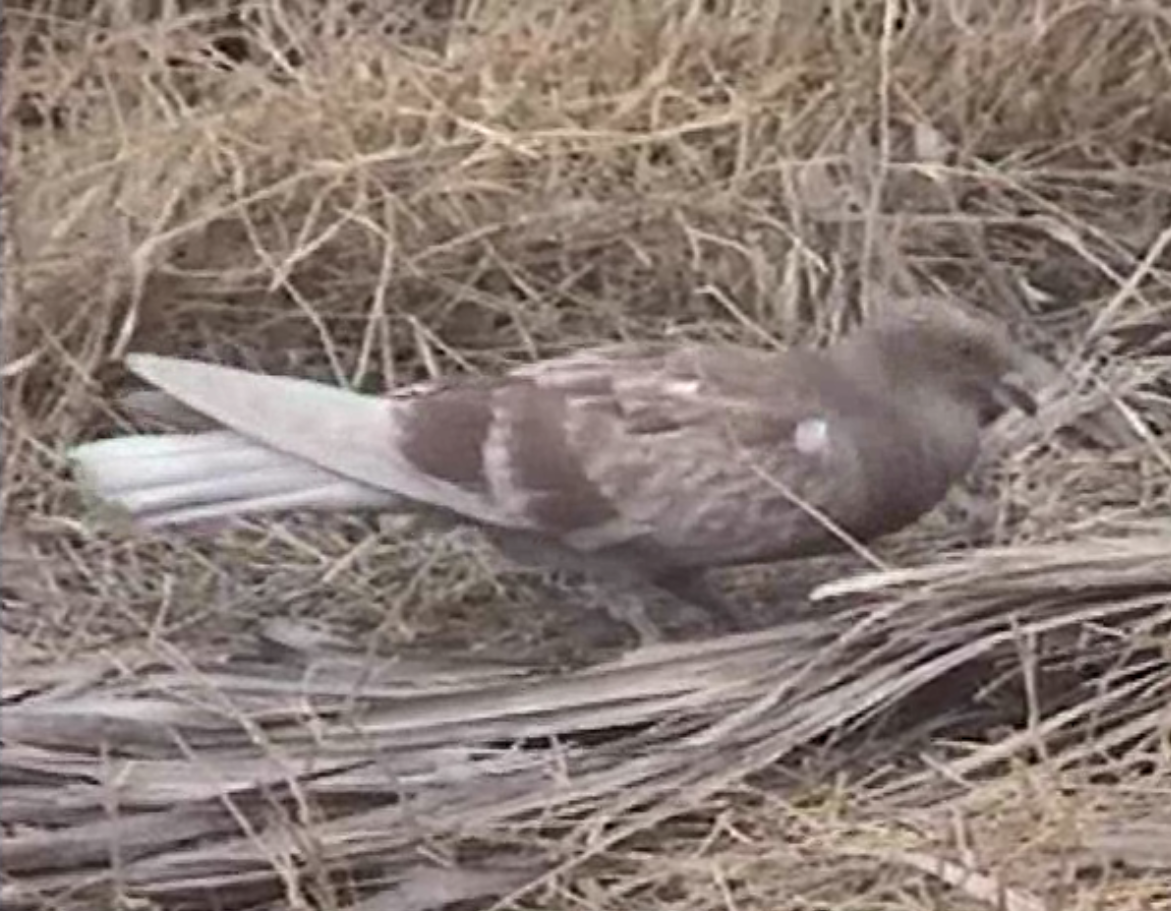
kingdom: Animalia
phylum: Chordata
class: Aves
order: Columbiformes
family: Columbidae
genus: Columba
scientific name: Columba livia
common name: Rock pigeon
